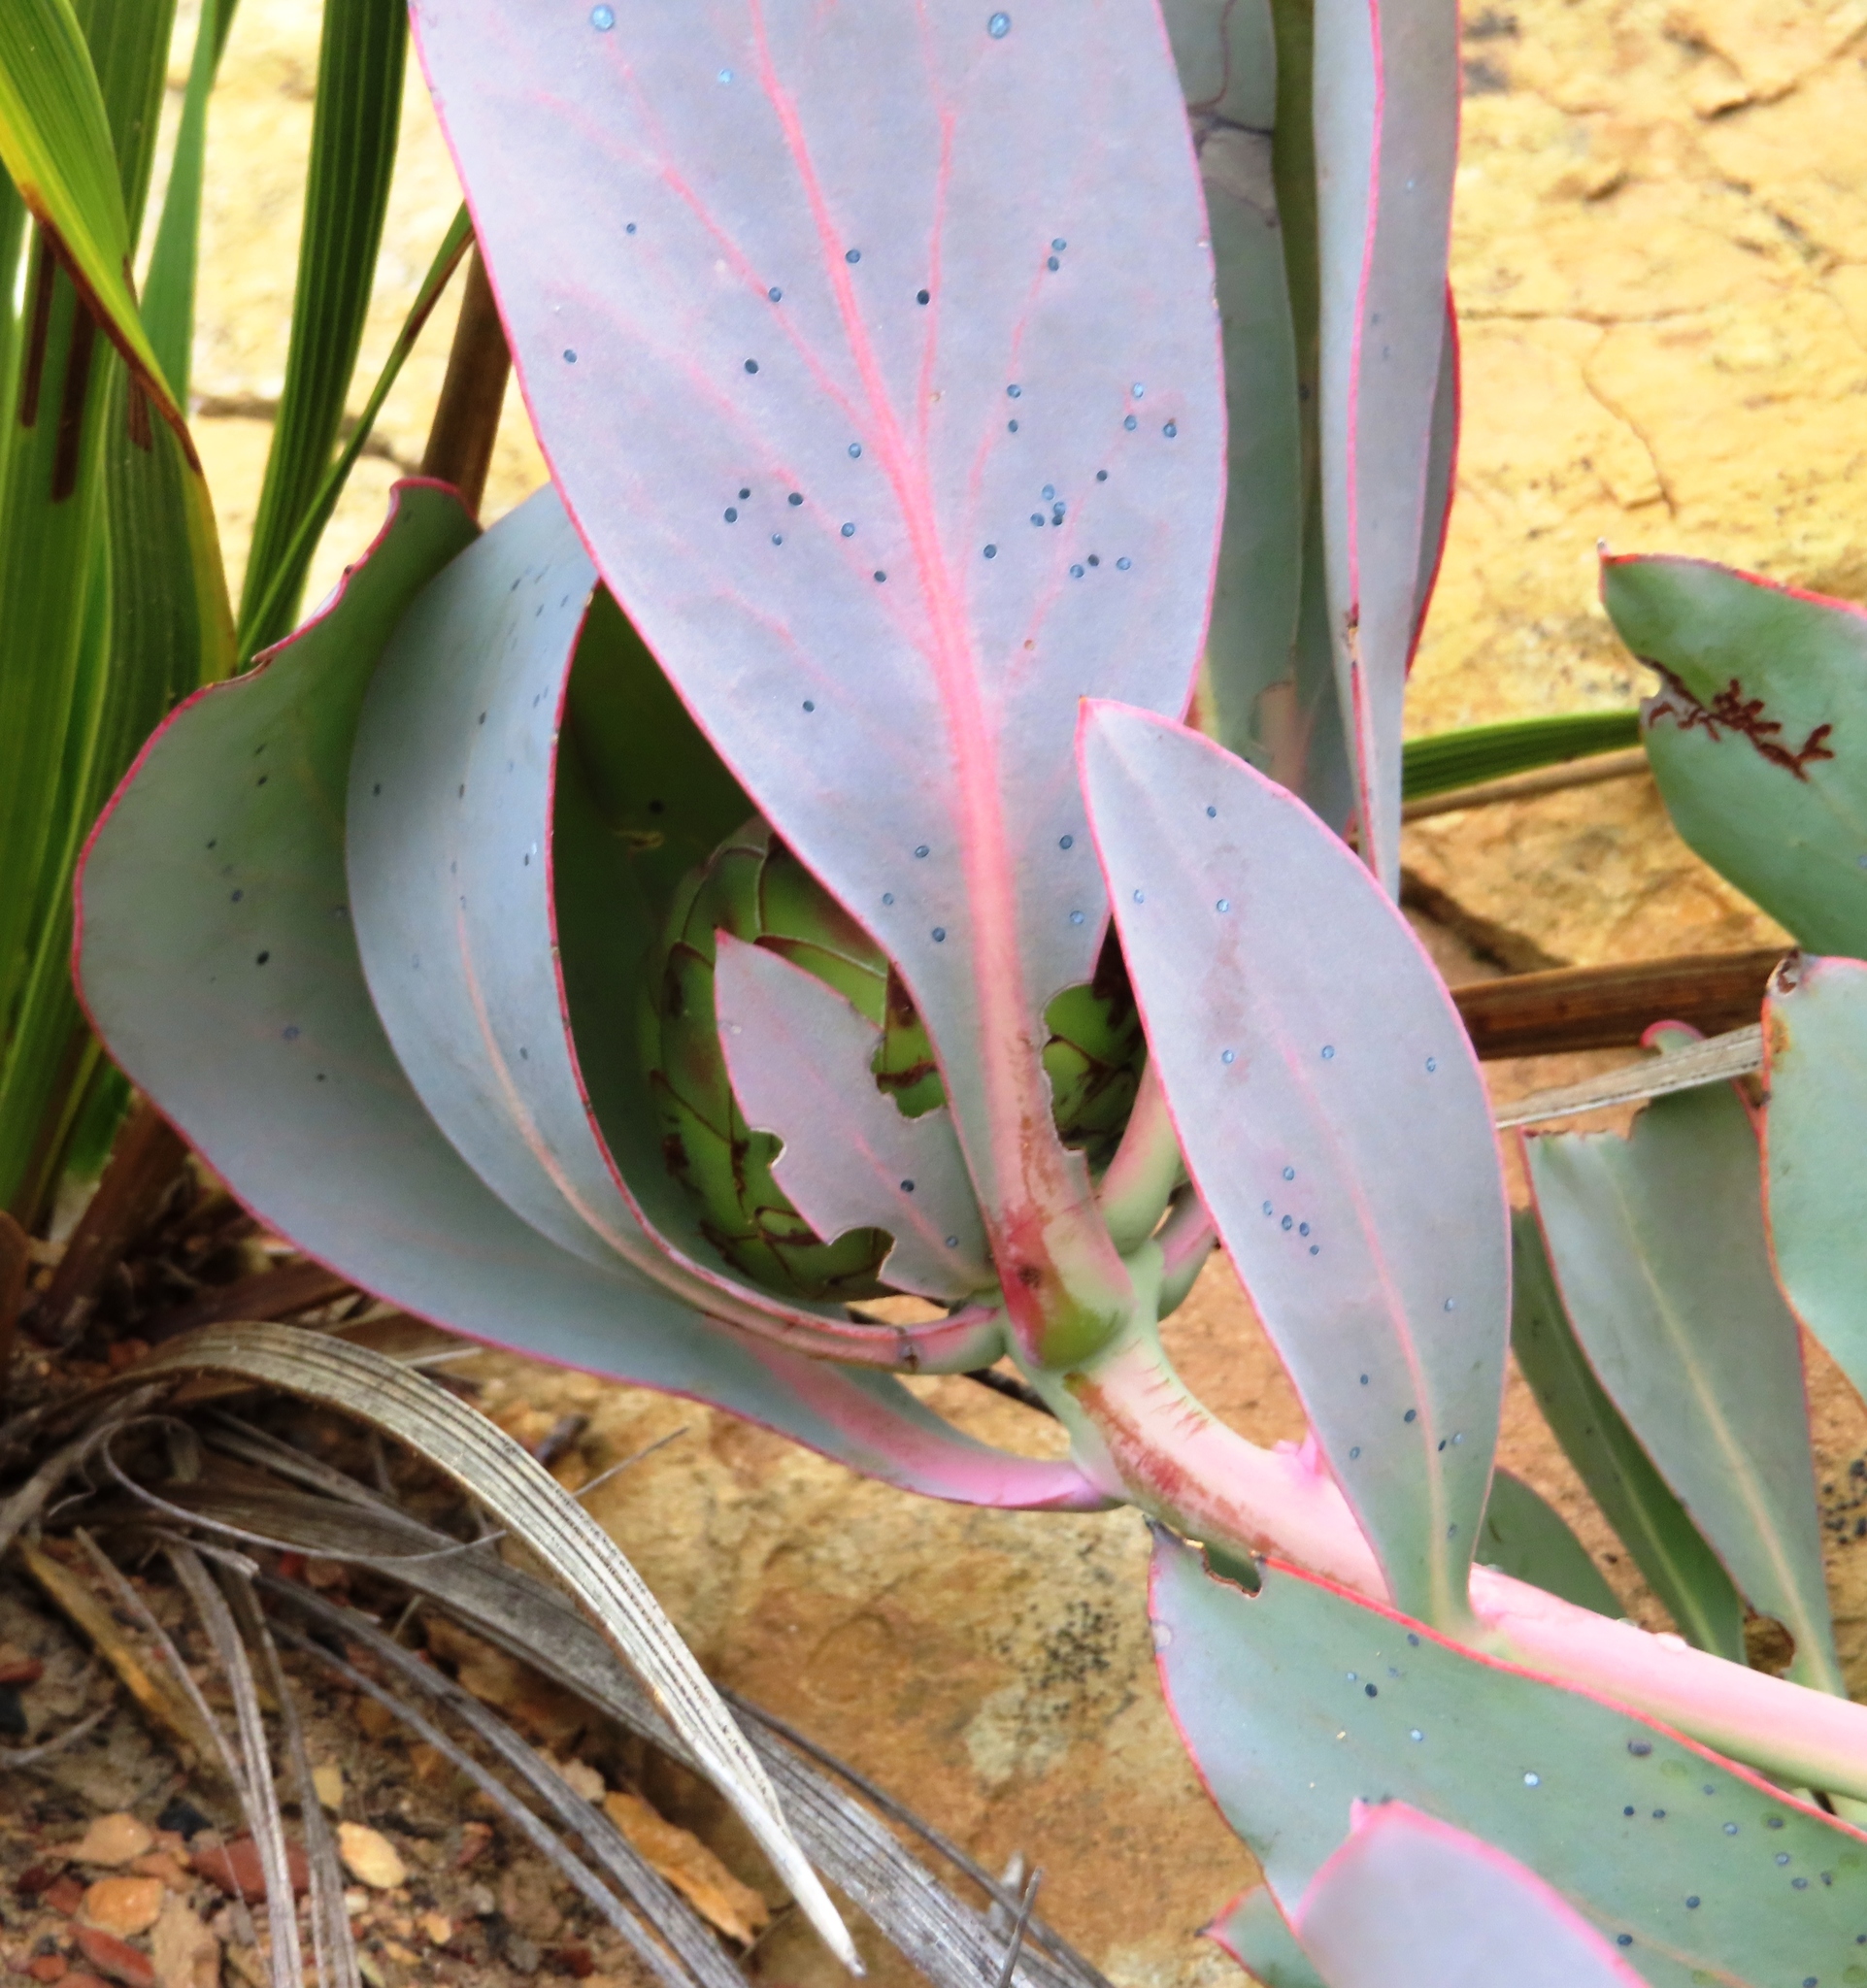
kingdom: Plantae
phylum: Tracheophyta
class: Magnoliopsida
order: Proteales
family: Proteaceae
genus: Protea
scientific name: Protea recondita
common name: Hidden sugarbush
